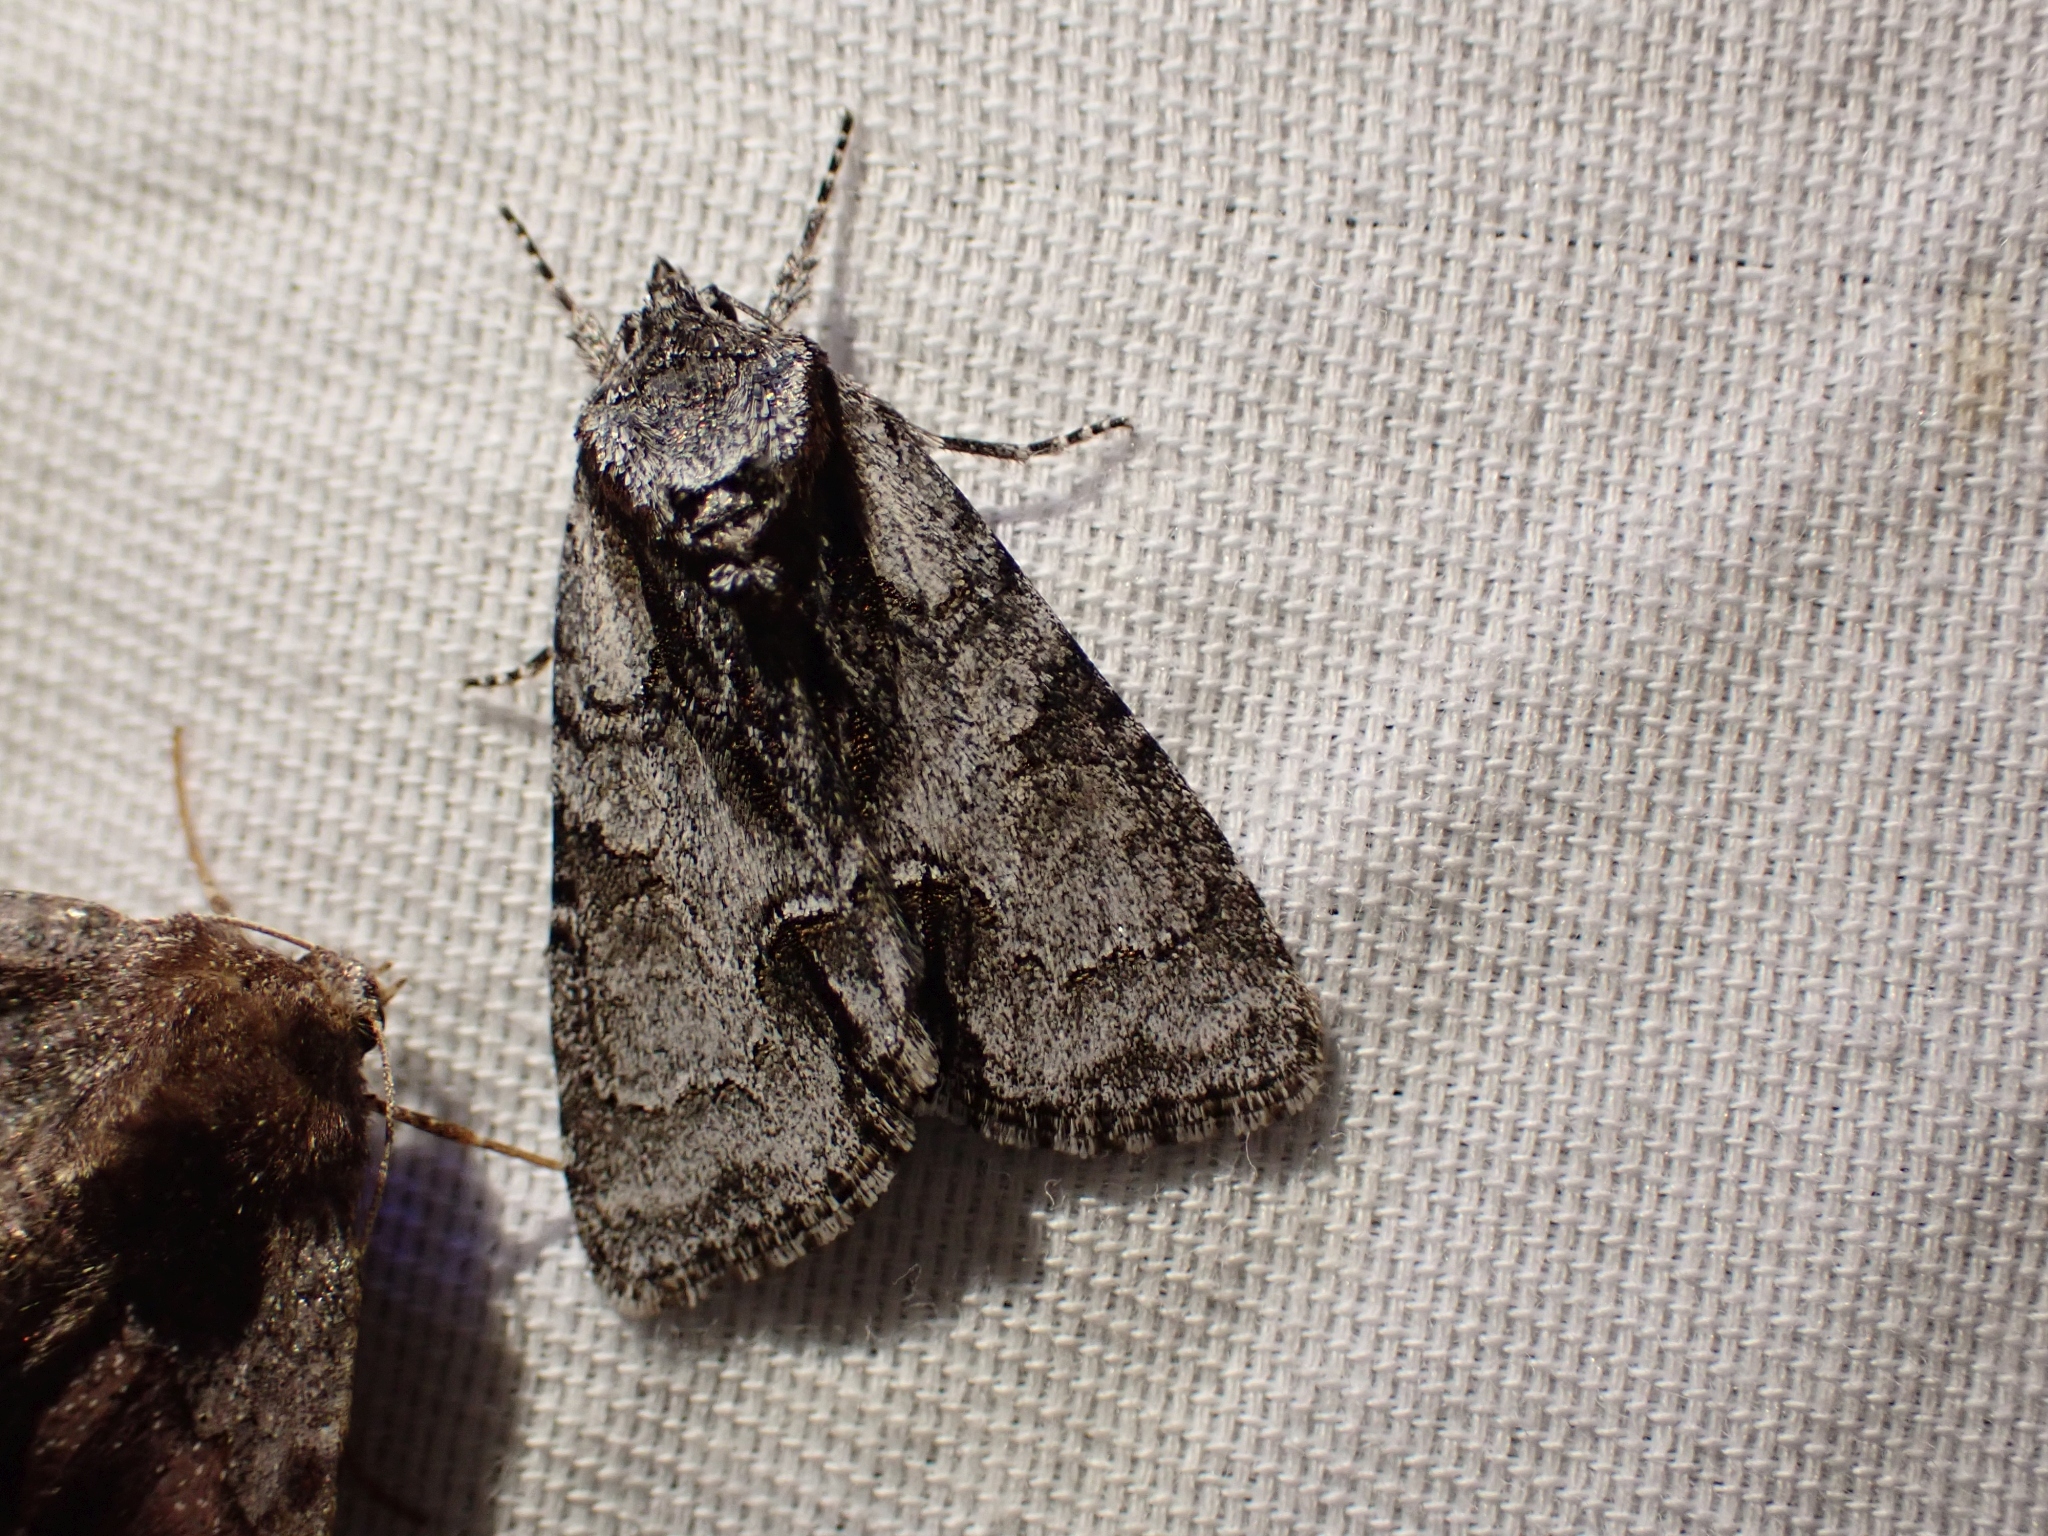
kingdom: Animalia
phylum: Arthropoda
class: Insecta
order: Lepidoptera
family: Noctuidae
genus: Acronicta
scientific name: Acronicta mansueta
